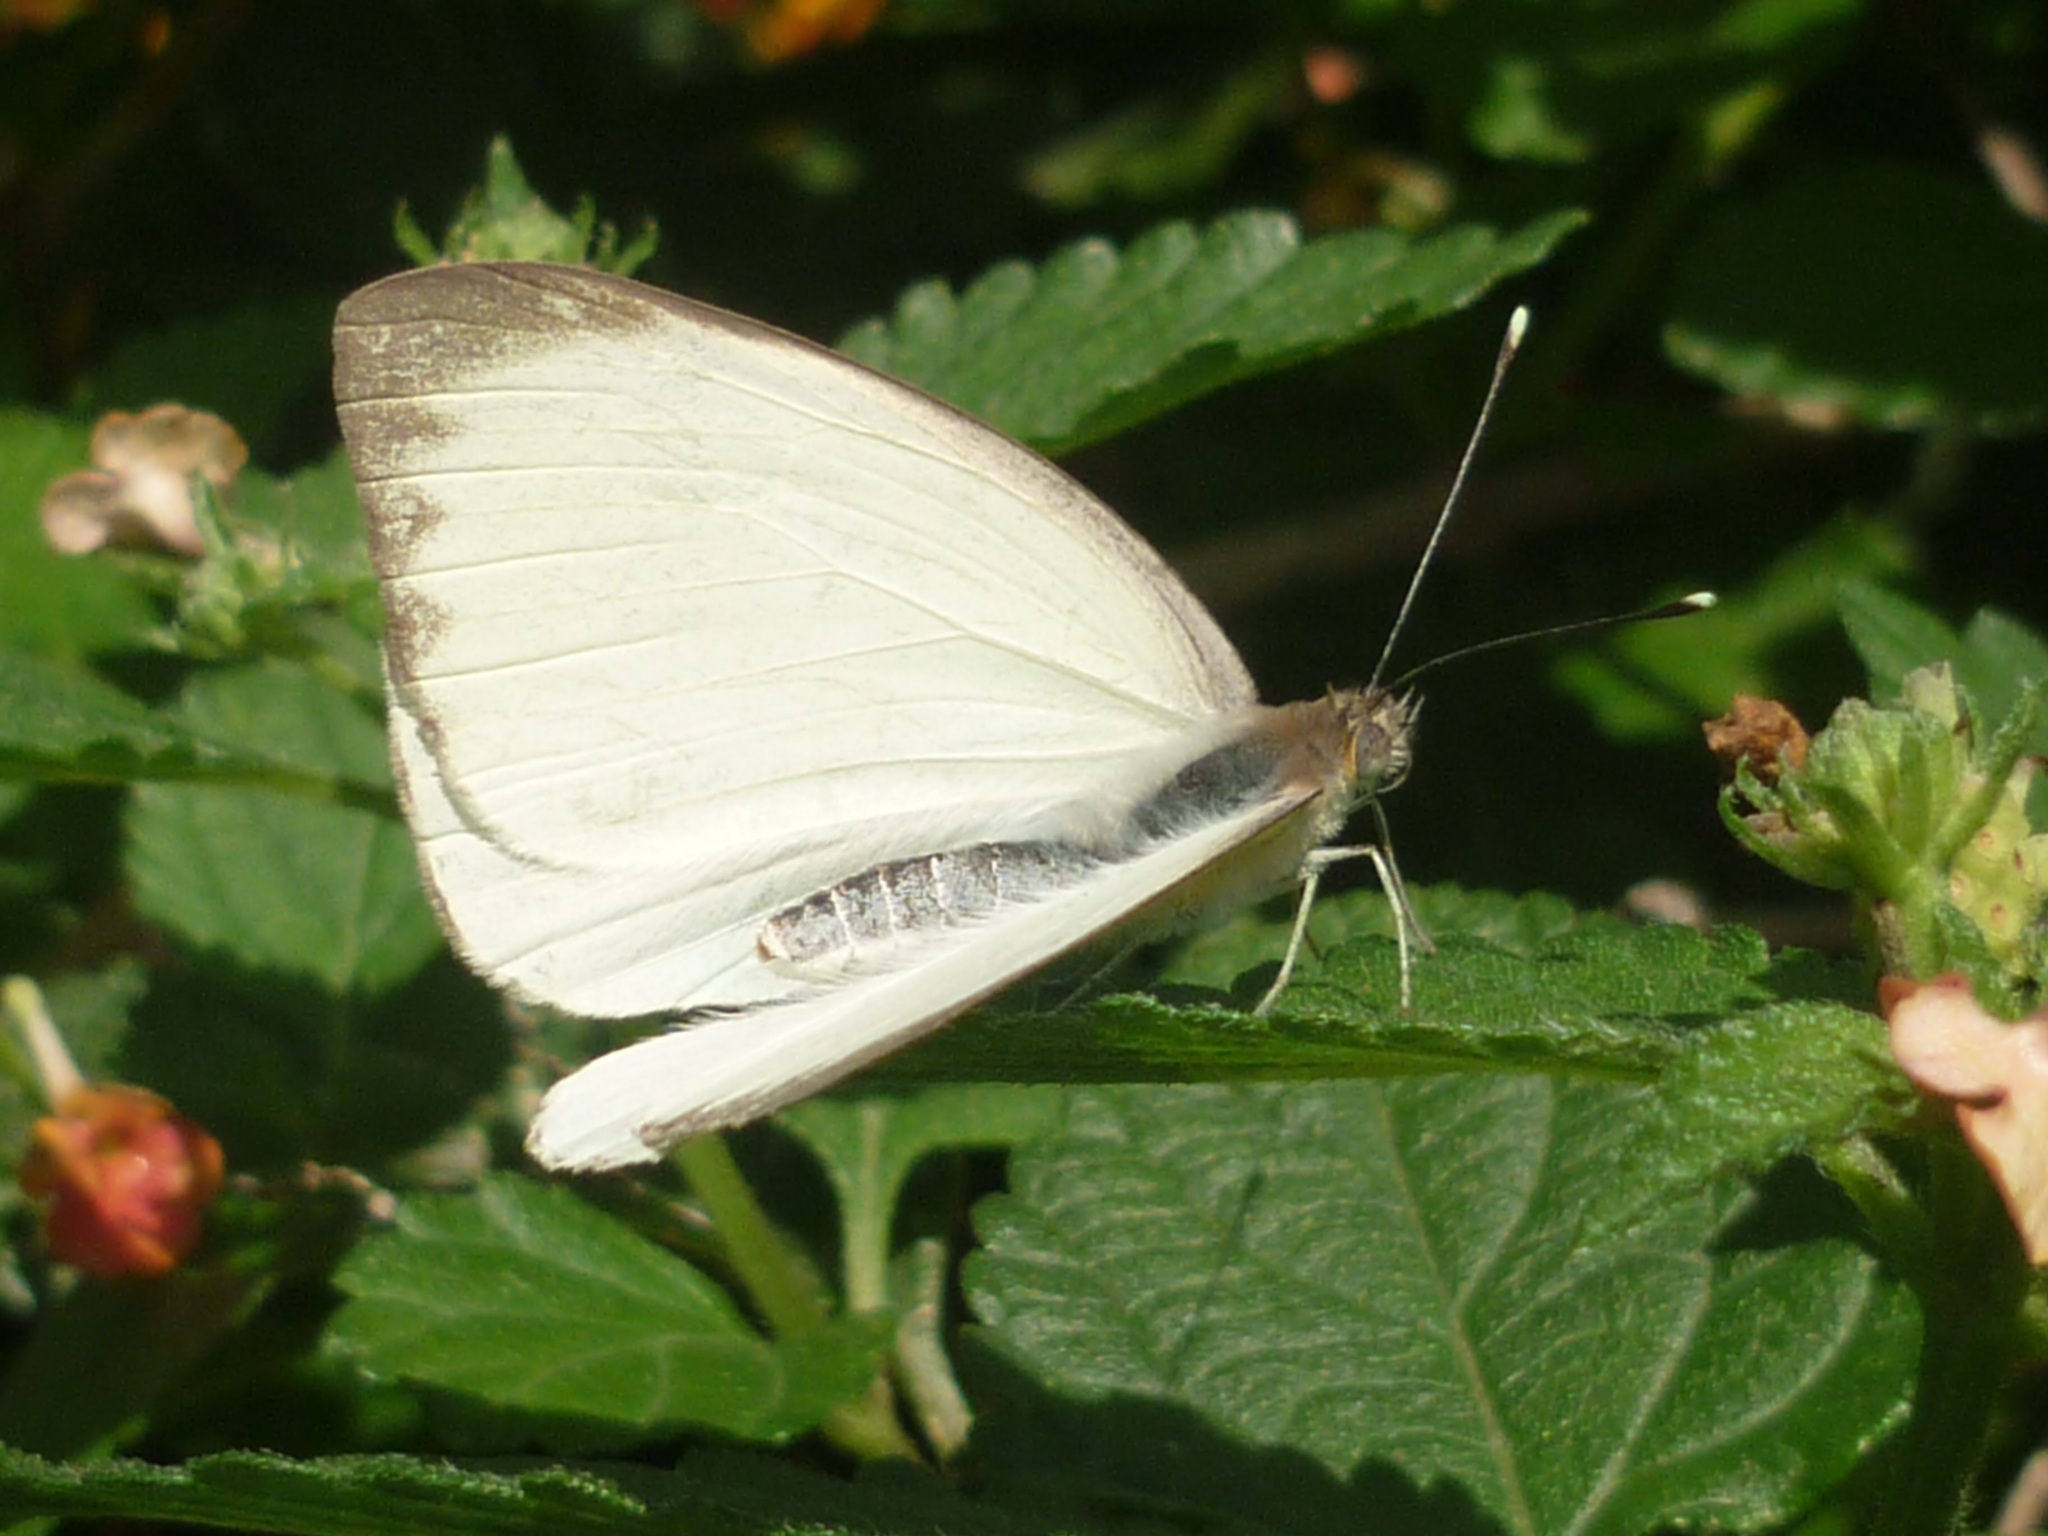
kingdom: Animalia
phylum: Arthropoda
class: Insecta
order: Lepidoptera
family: Pieridae
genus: Ascia
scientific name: Ascia monuste
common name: Great southern white
